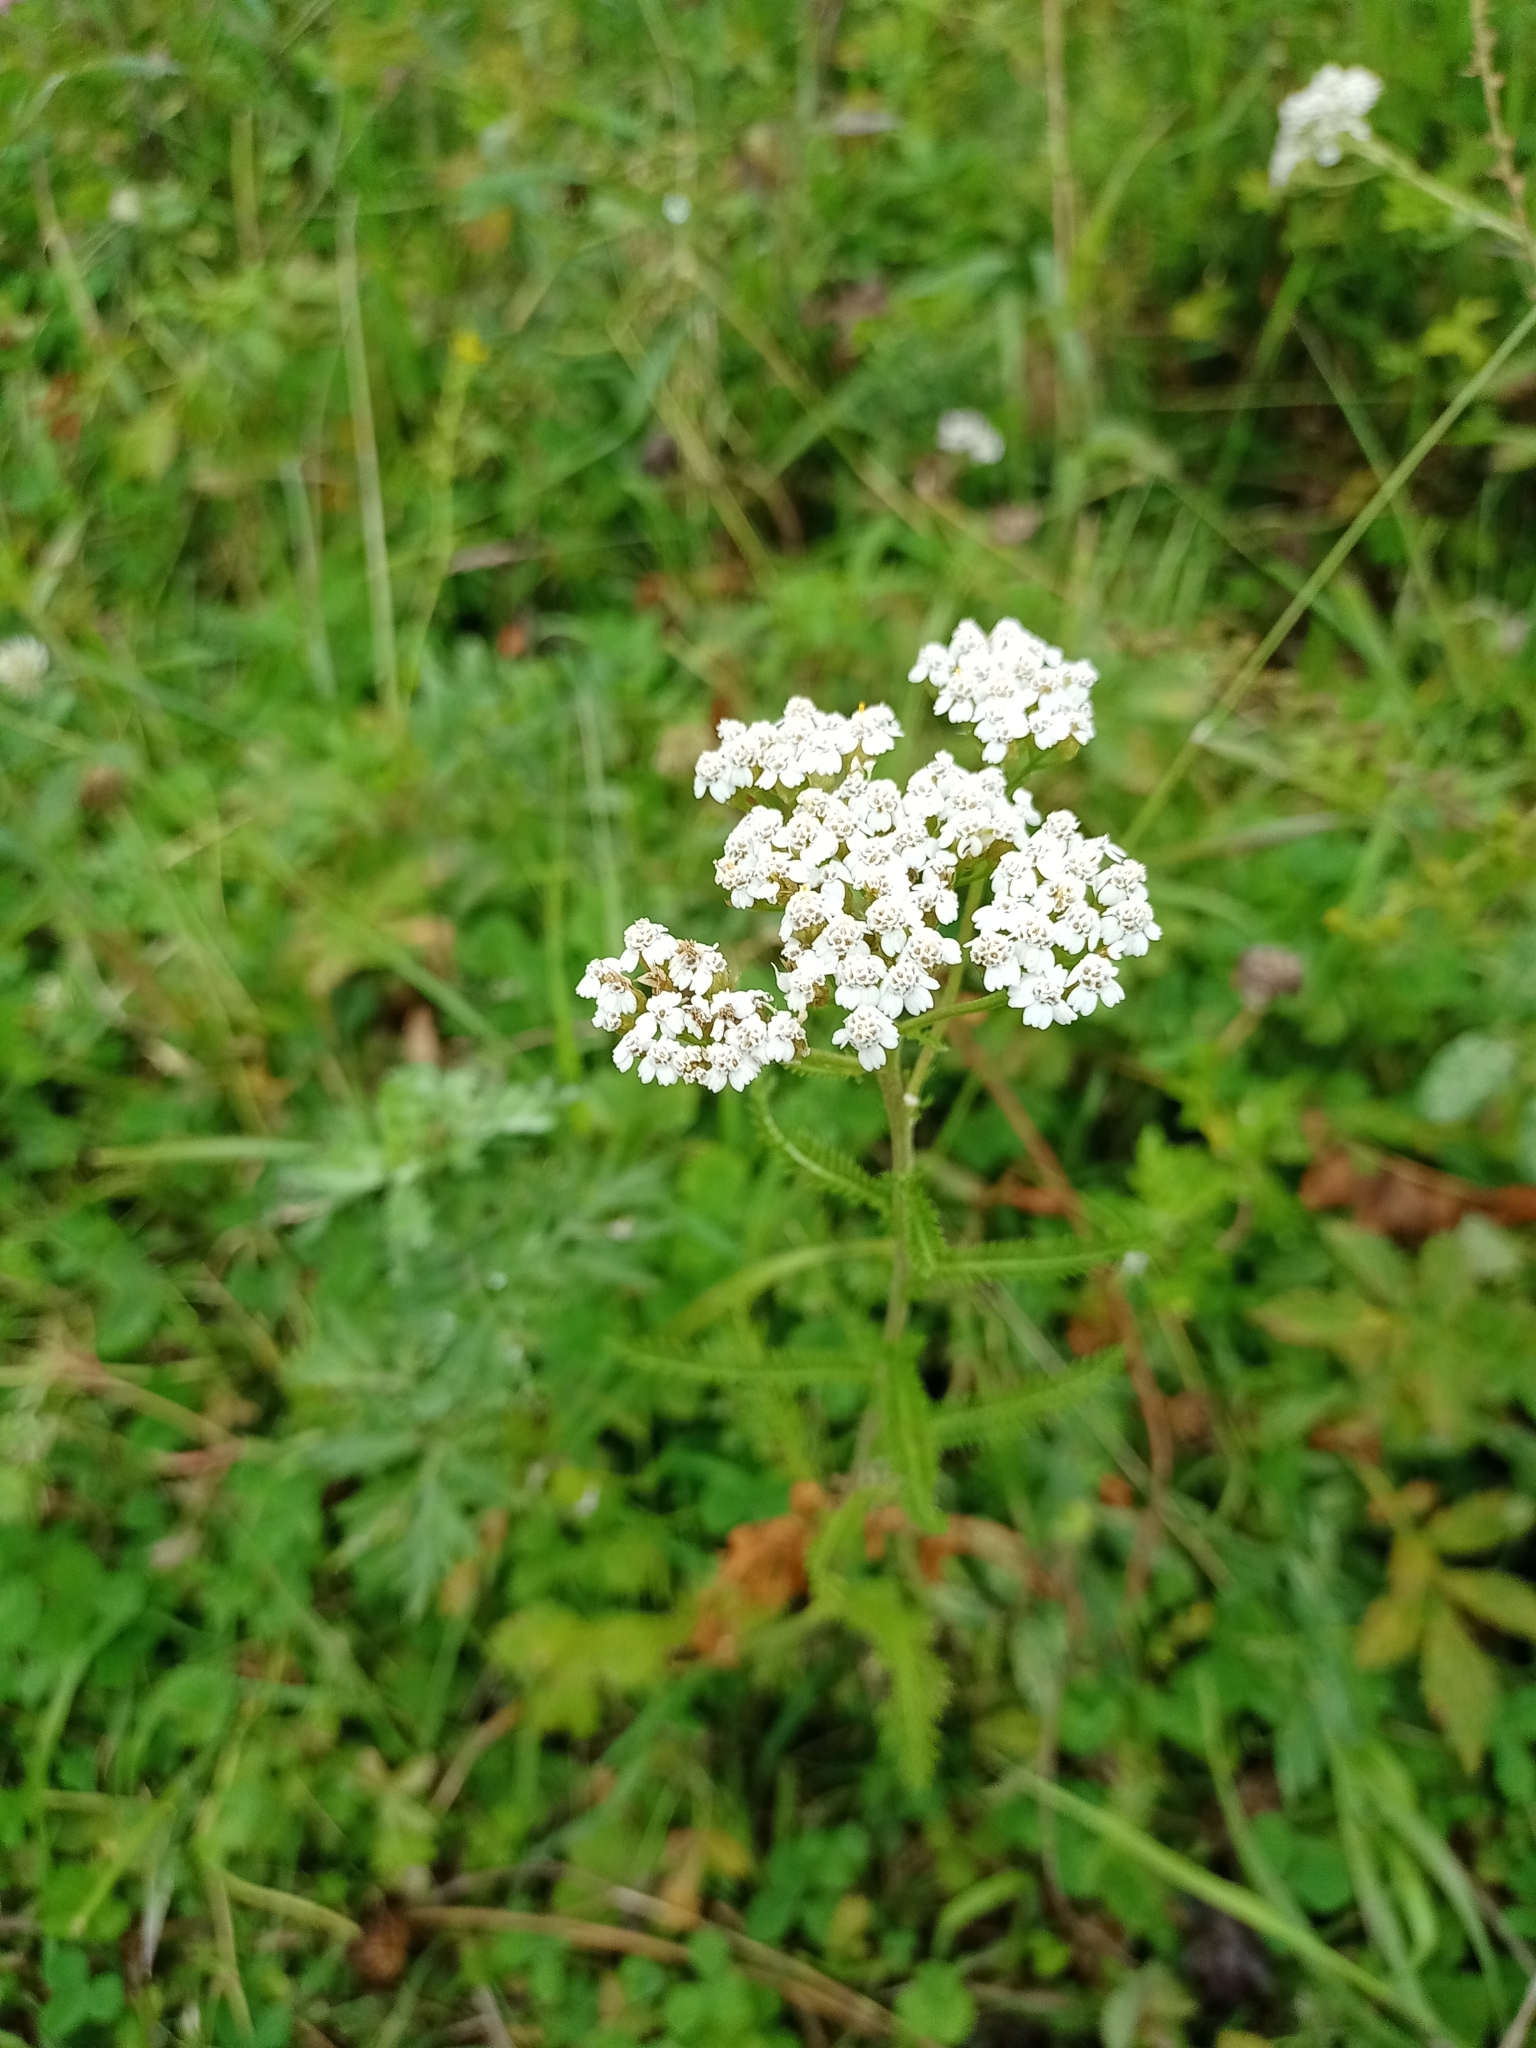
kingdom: Plantae
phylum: Tracheophyta
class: Magnoliopsida
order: Asterales
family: Asteraceae
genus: Achillea
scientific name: Achillea asiatica
